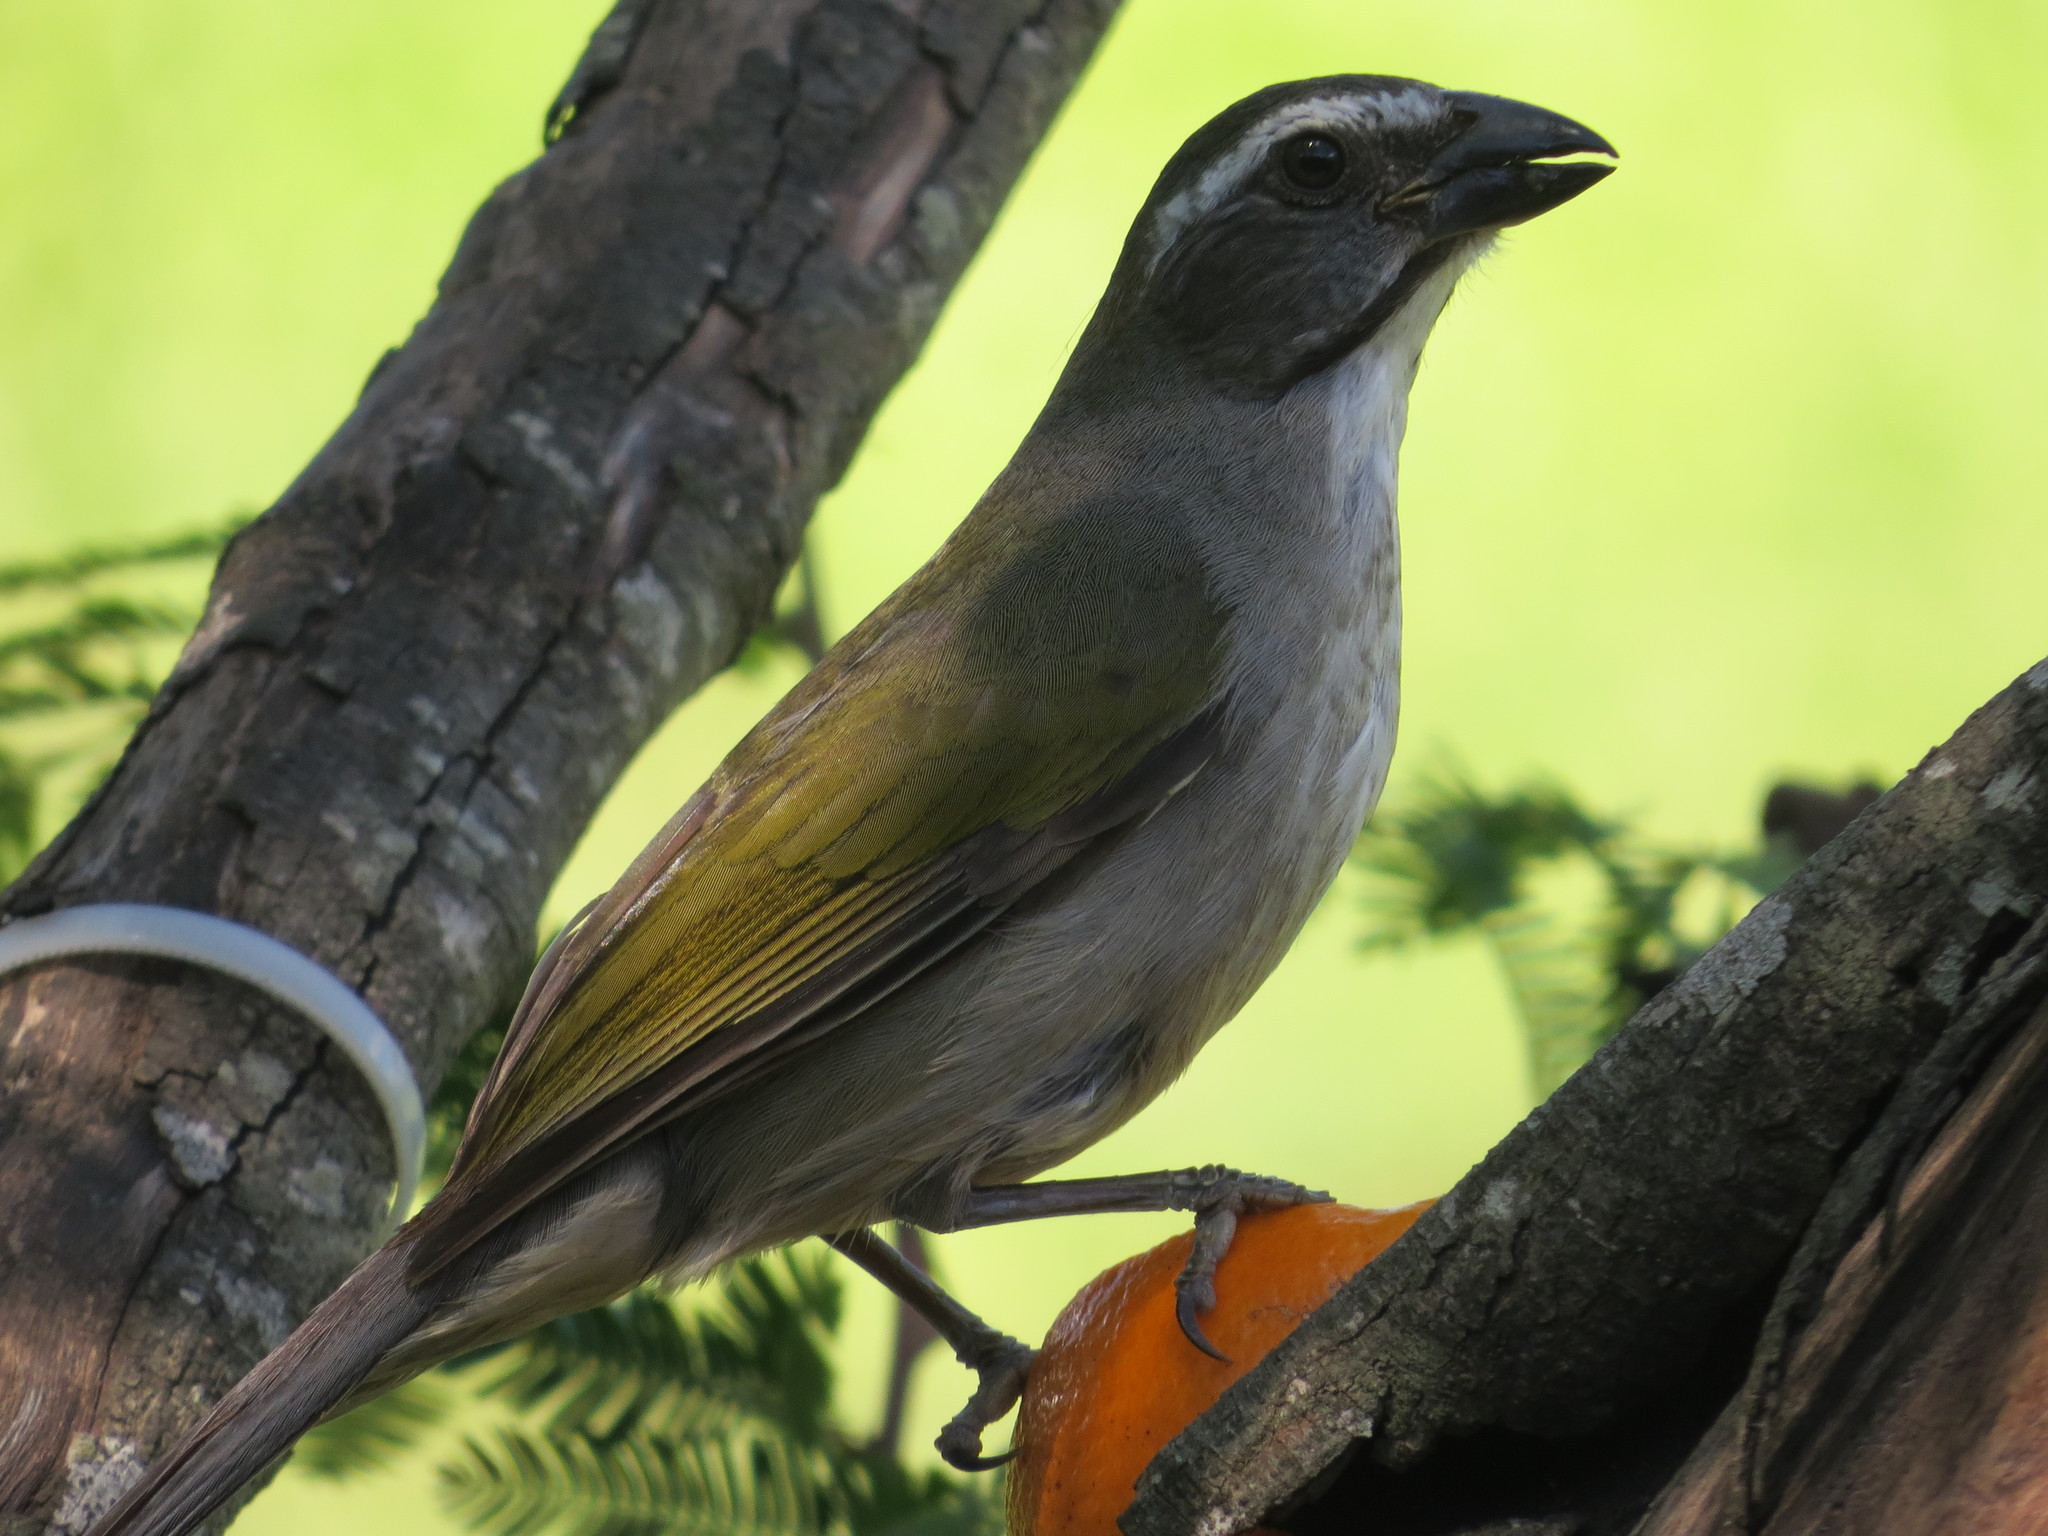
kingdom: Animalia
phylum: Chordata
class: Aves
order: Passeriformes
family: Thraupidae
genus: Saltator
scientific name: Saltator similis
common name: Green-winged saltator
